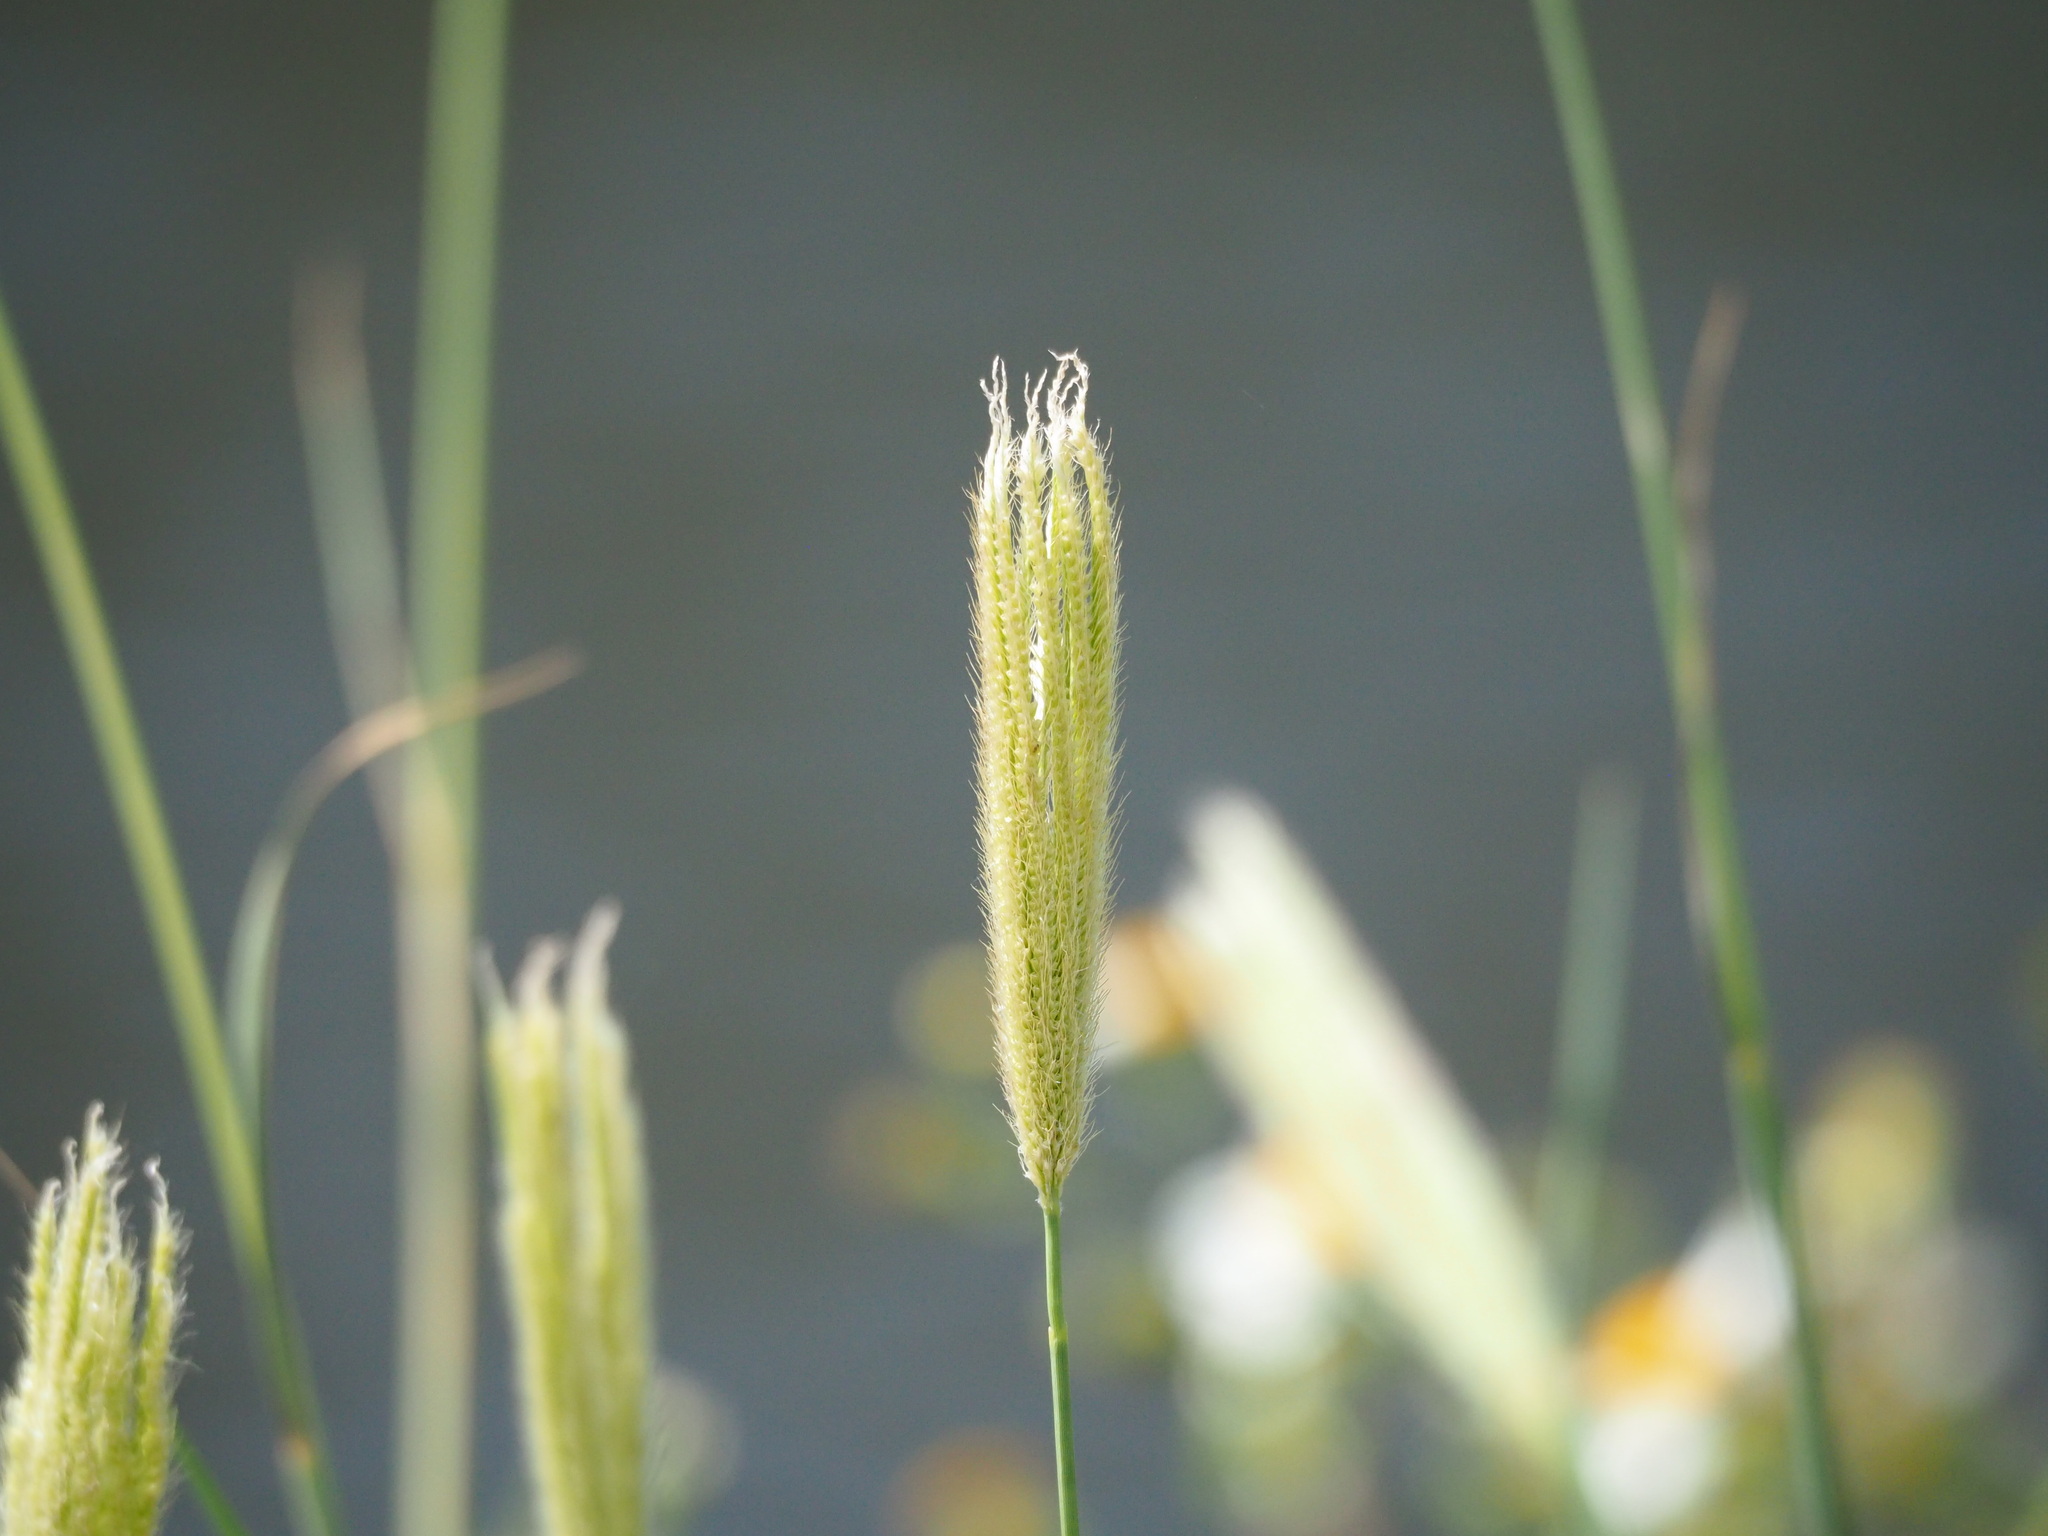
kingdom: Plantae
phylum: Tracheophyta
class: Liliopsida
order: Poales
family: Poaceae
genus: Chloris
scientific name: Chloris formosana
